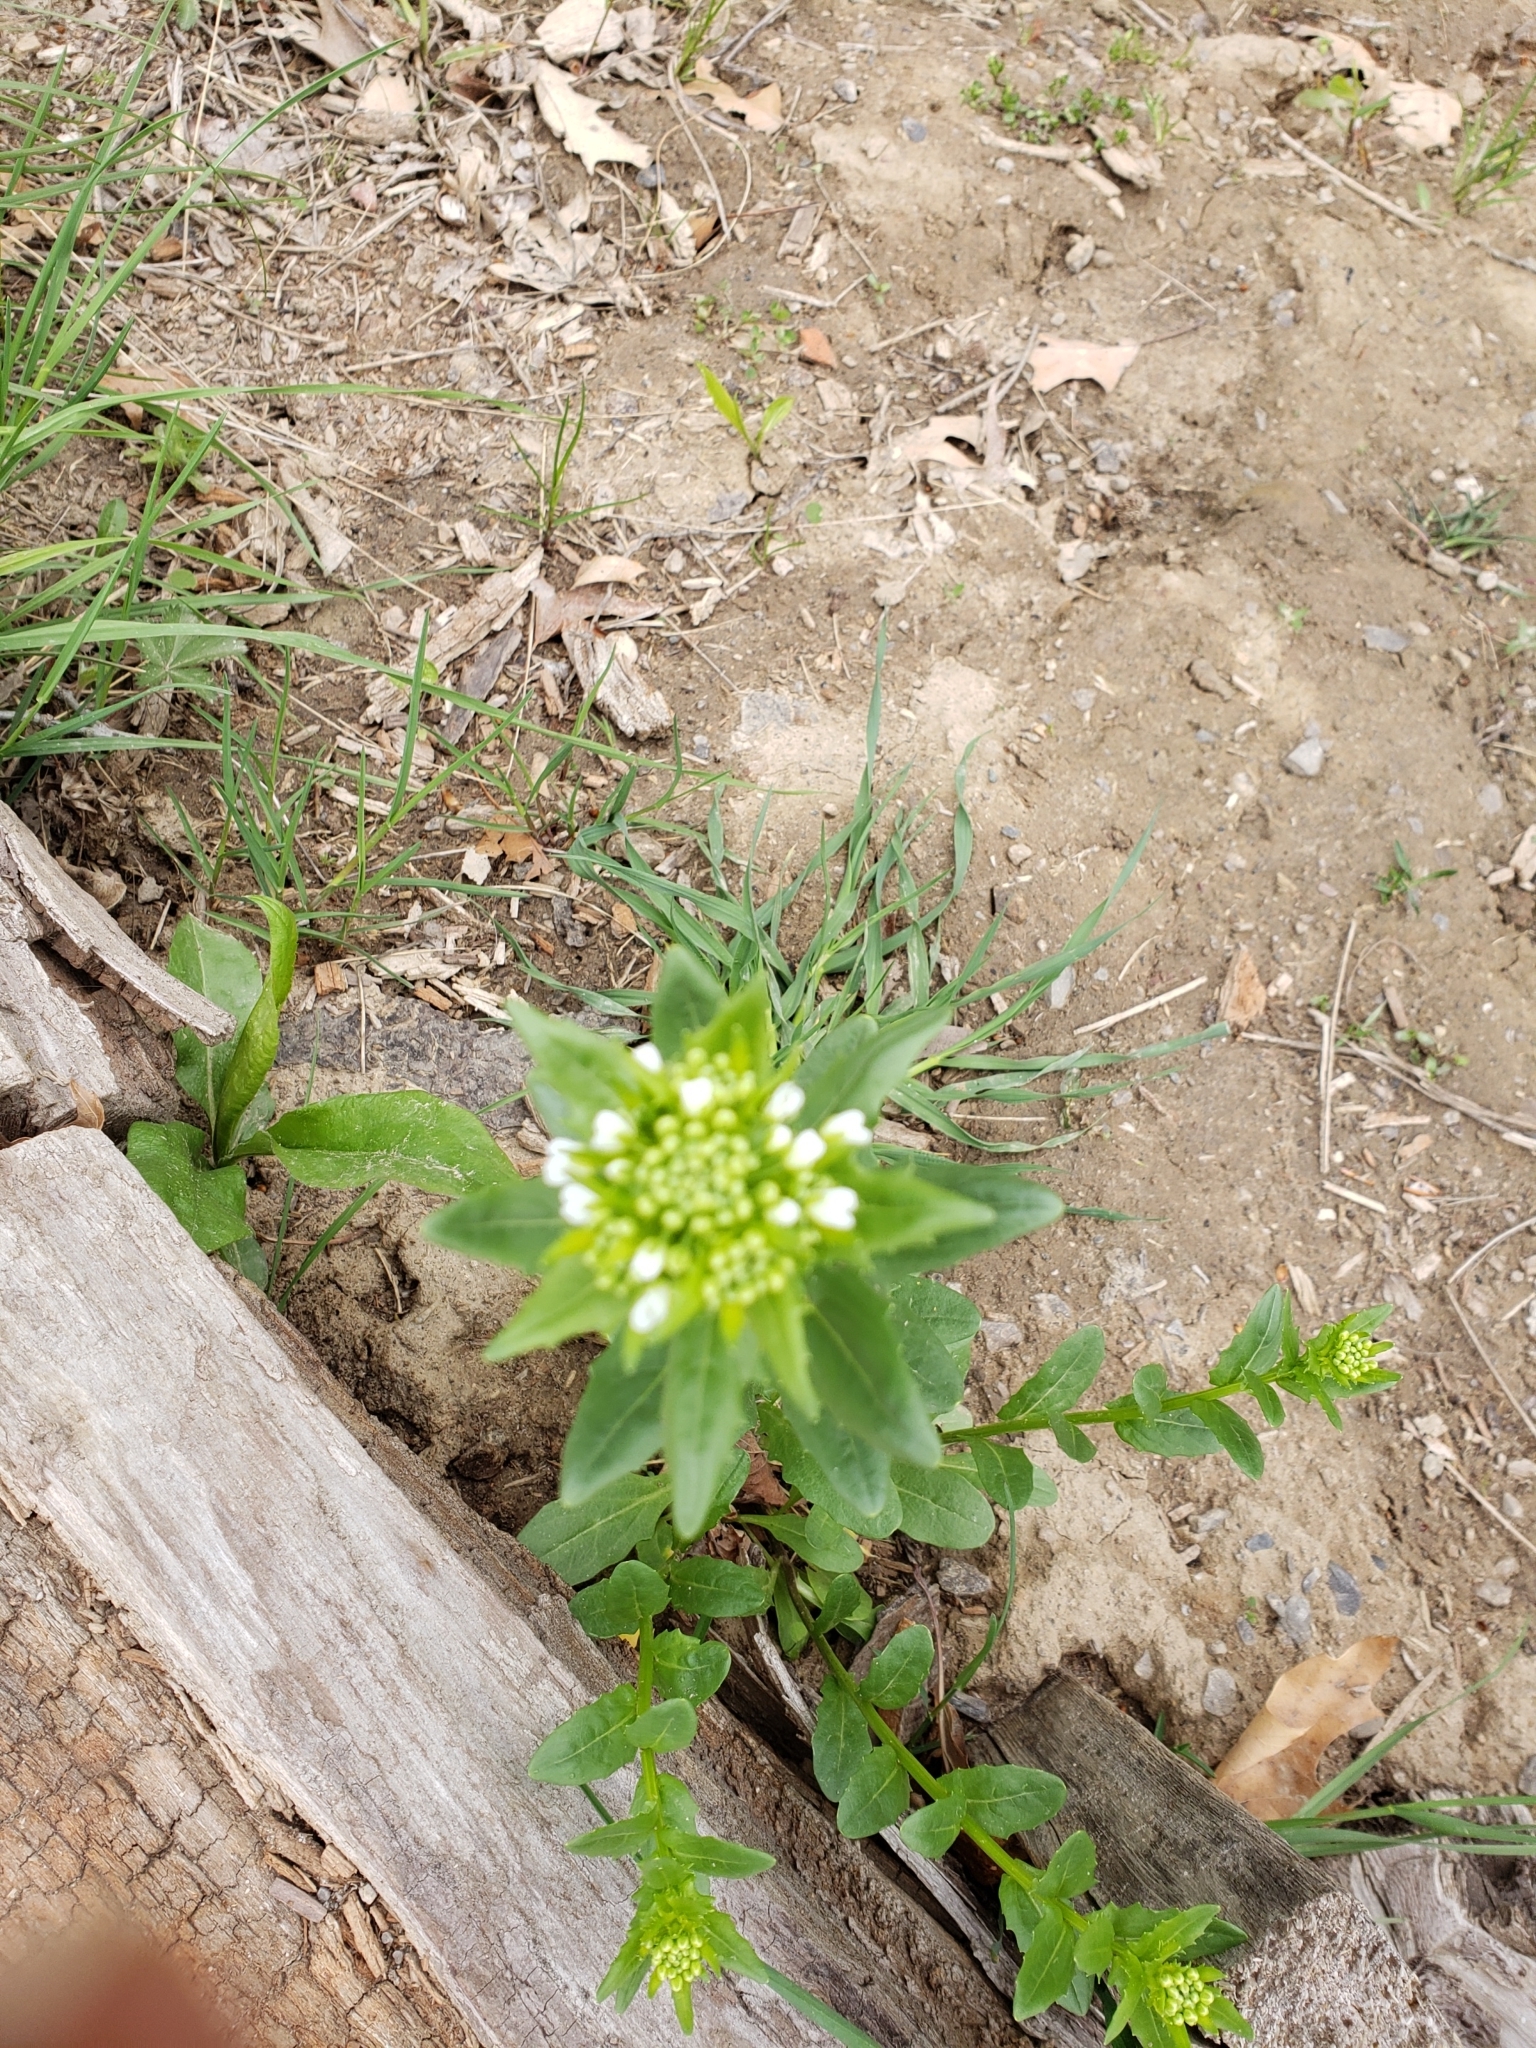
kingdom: Plantae
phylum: Tracheophyta
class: Magnoliopsida
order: Brassicales
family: Brassicaceae
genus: Thlaspi
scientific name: Thlaspi arvense
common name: Field pennycress
